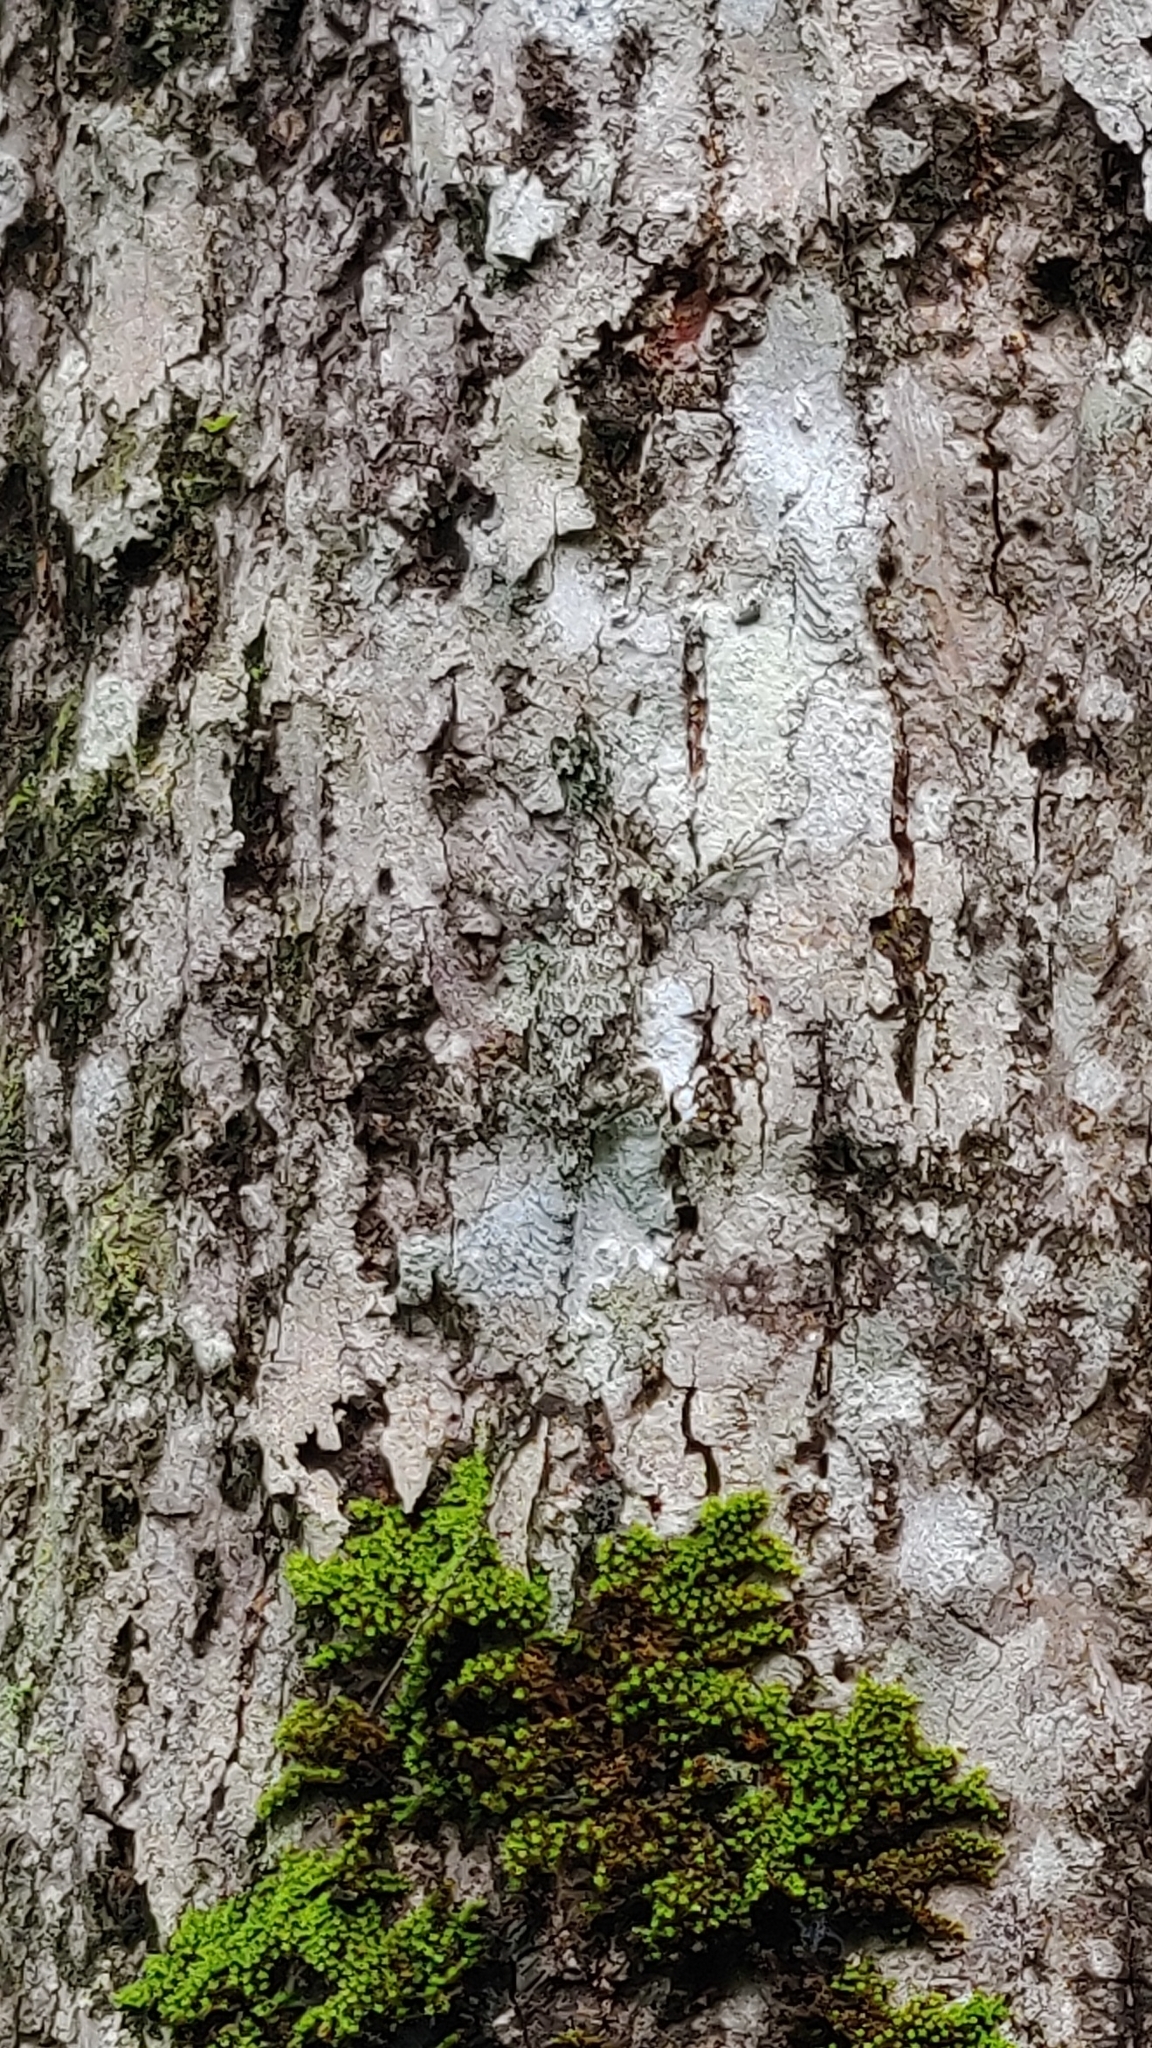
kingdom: Animalia
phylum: Chordata
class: Squamata
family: Agamidae
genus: Draco
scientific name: Draco dussumieri
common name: Southern flying lizard
